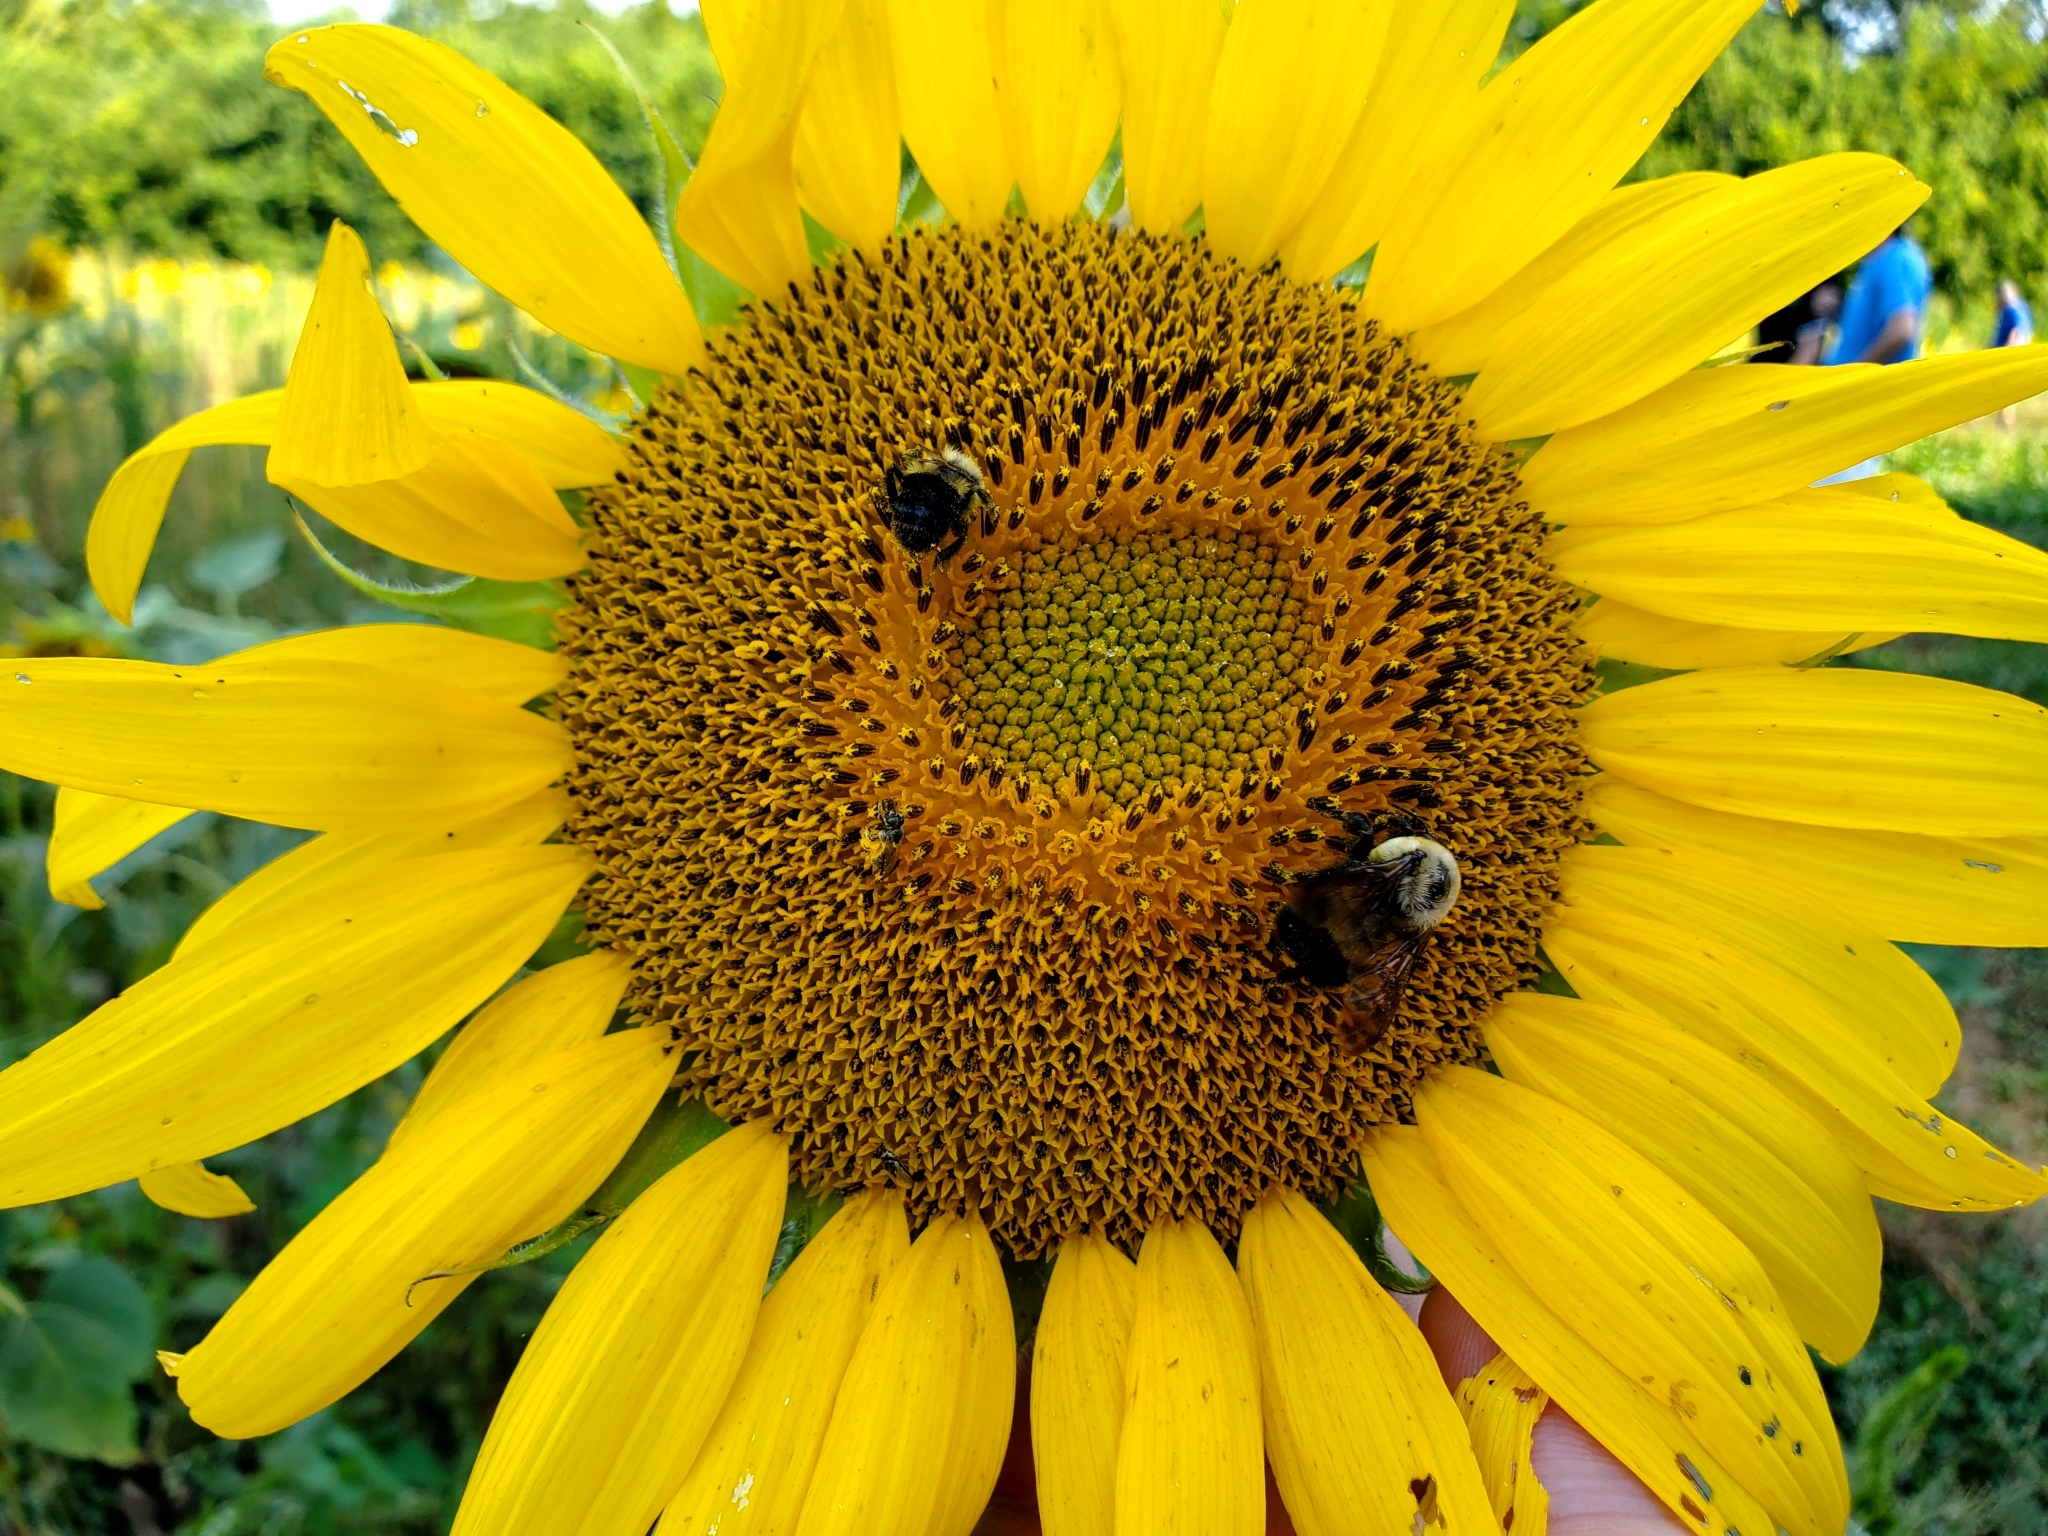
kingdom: Animalia
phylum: Arthropoda
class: Insecta
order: Hymenoptera
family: Apidae
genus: Bombus
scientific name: Bombus griseocollis
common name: Brown-belted bumble bee
